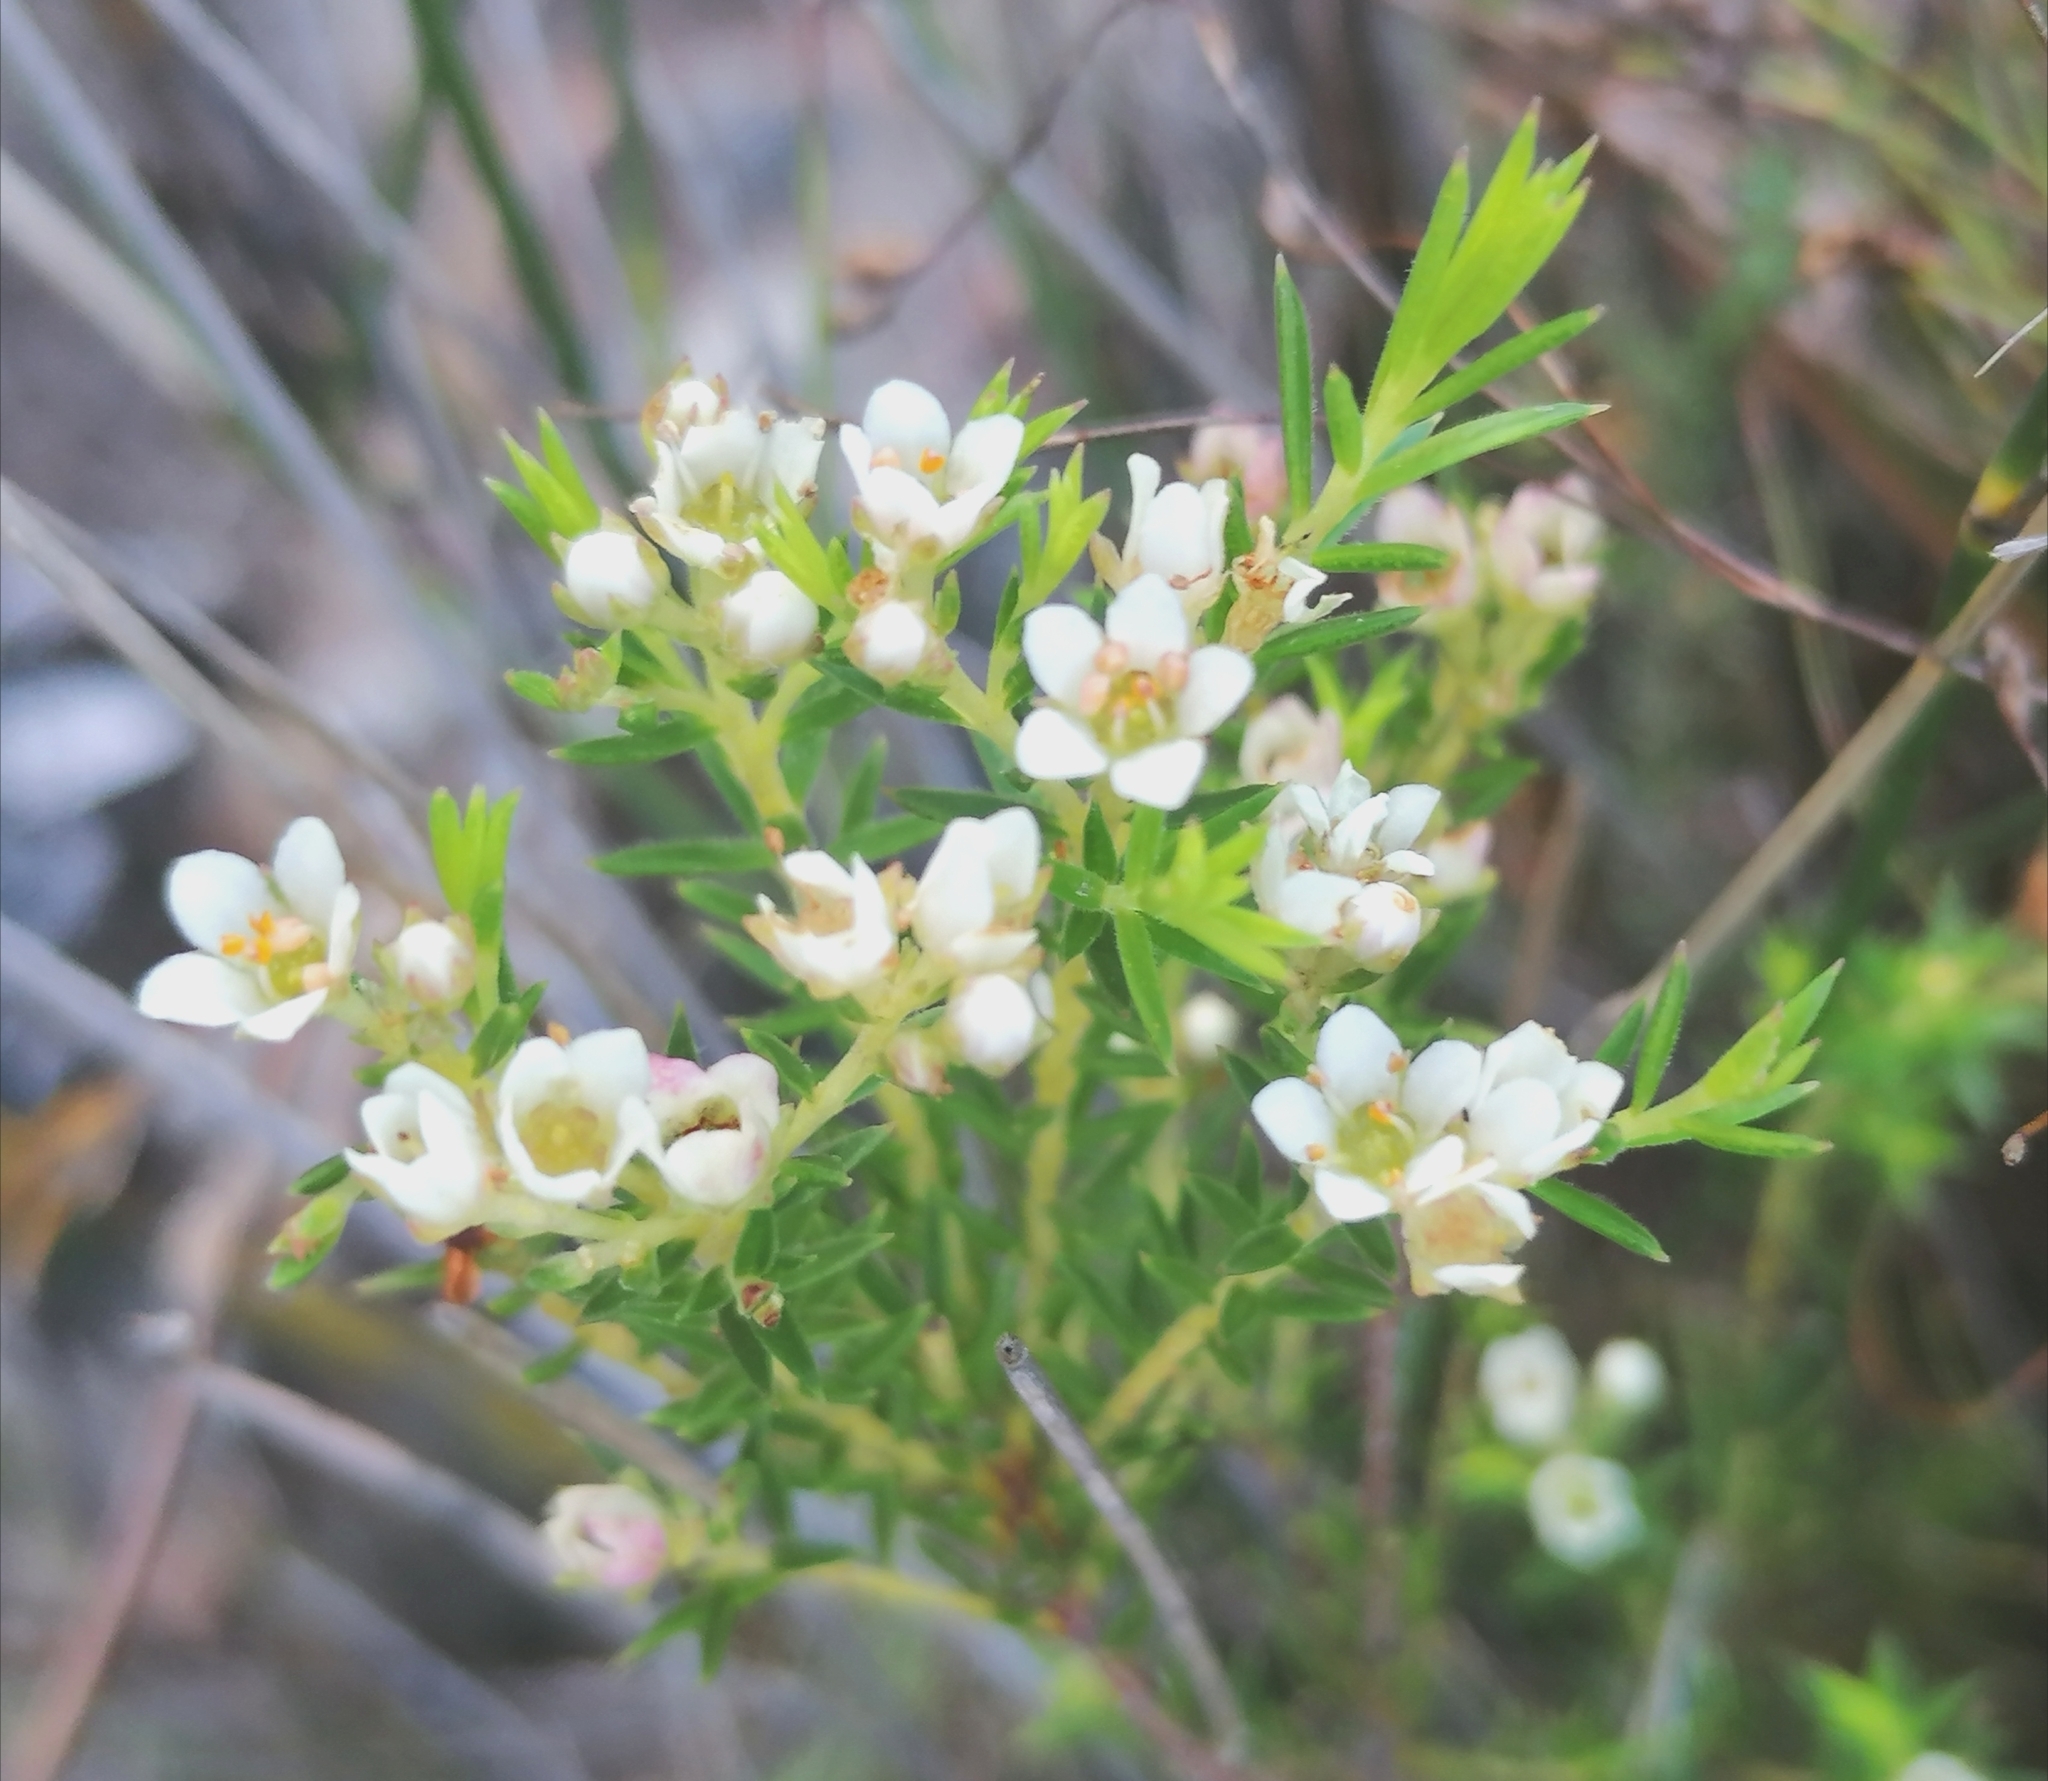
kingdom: Plantae
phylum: Tracheophyta
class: Magnoliopsida
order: Sapindales
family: Rutaceae
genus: Diosma
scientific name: Diosma hirsuta
